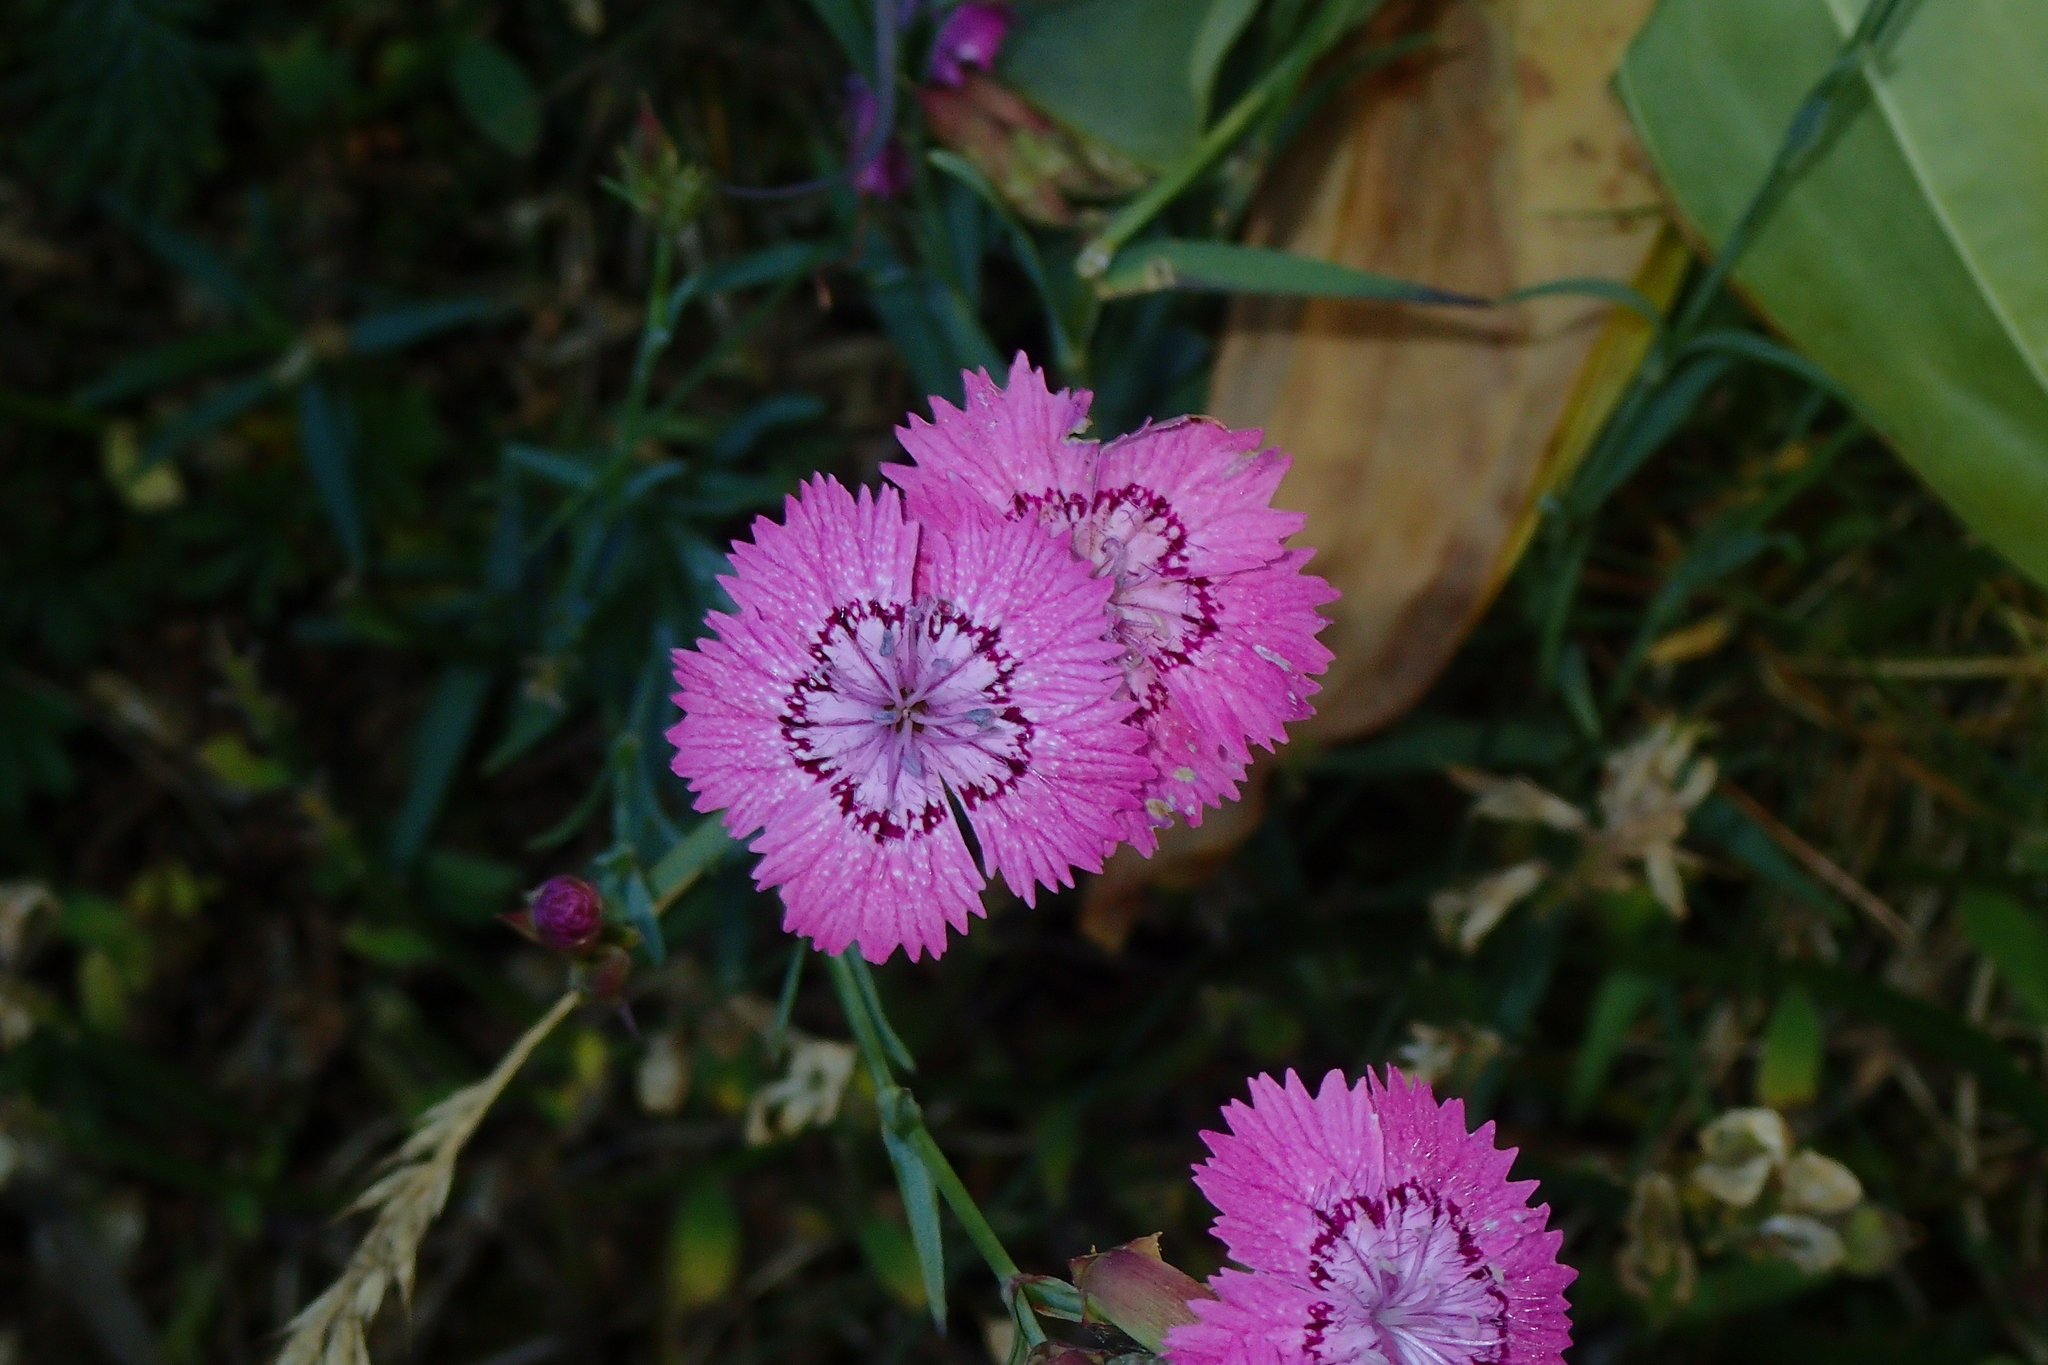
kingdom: Plantae
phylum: Tracheophyta
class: Magnoliopsida
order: Caryophyllales
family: Caryophyllaceae
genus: Dianthus
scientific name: Dianthus seguieri
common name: Ragged pink
